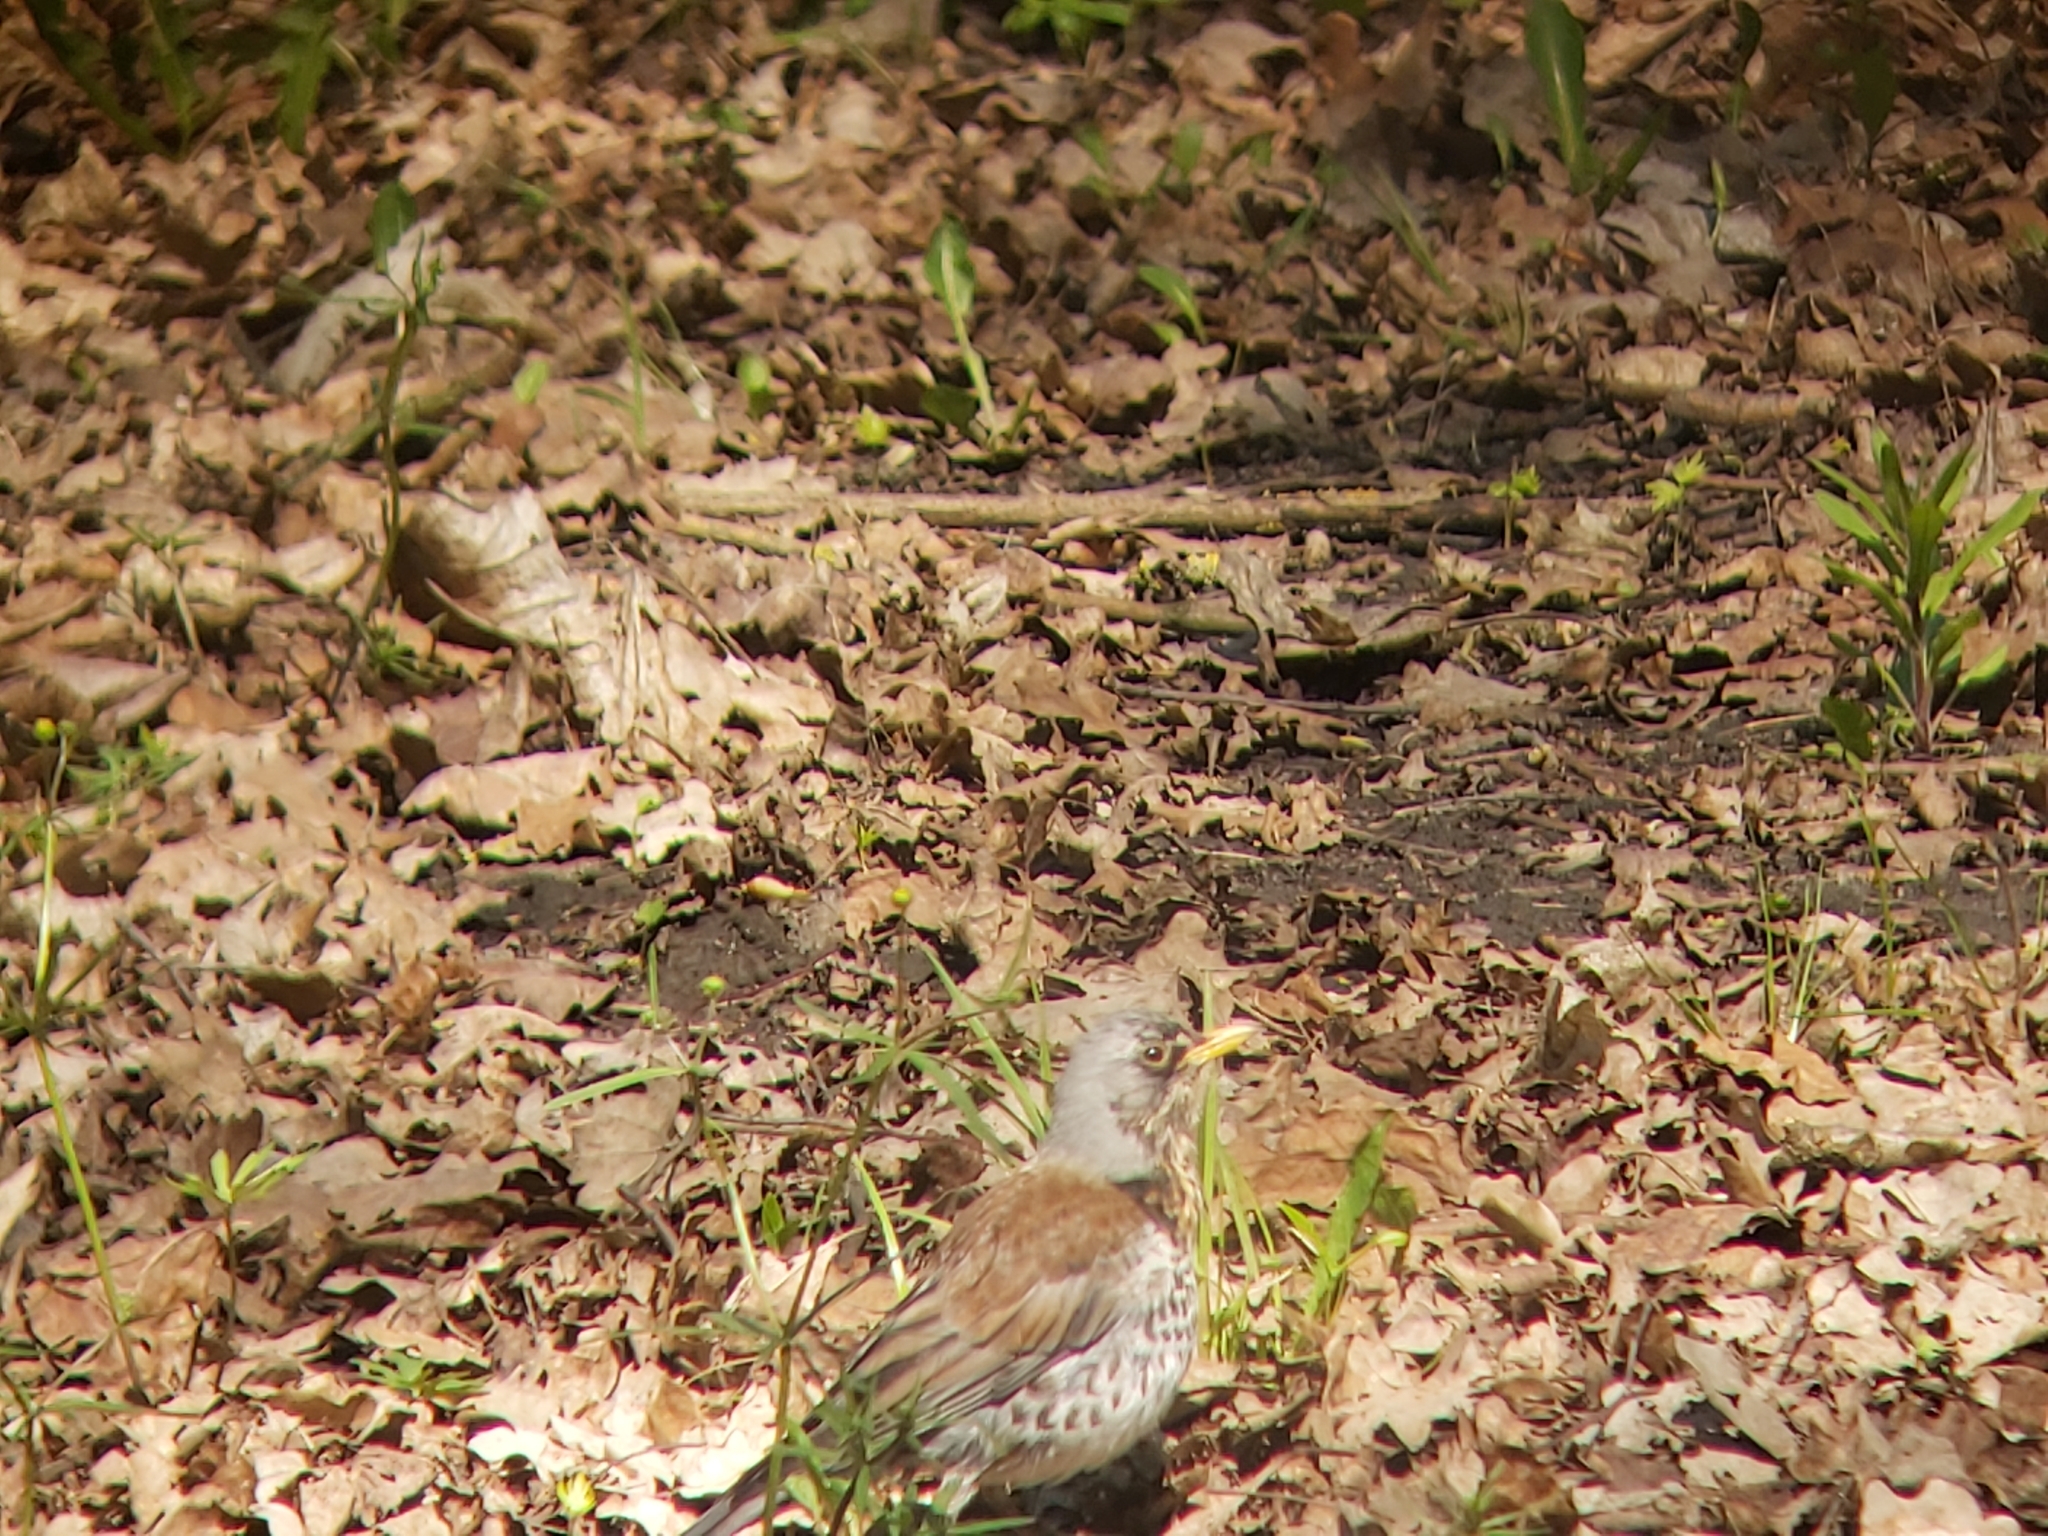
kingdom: Animalia
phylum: Chordata
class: Aves
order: Passeriformes
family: Turdidae
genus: Turdus
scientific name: Turdus pilaris
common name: Fieldfare
